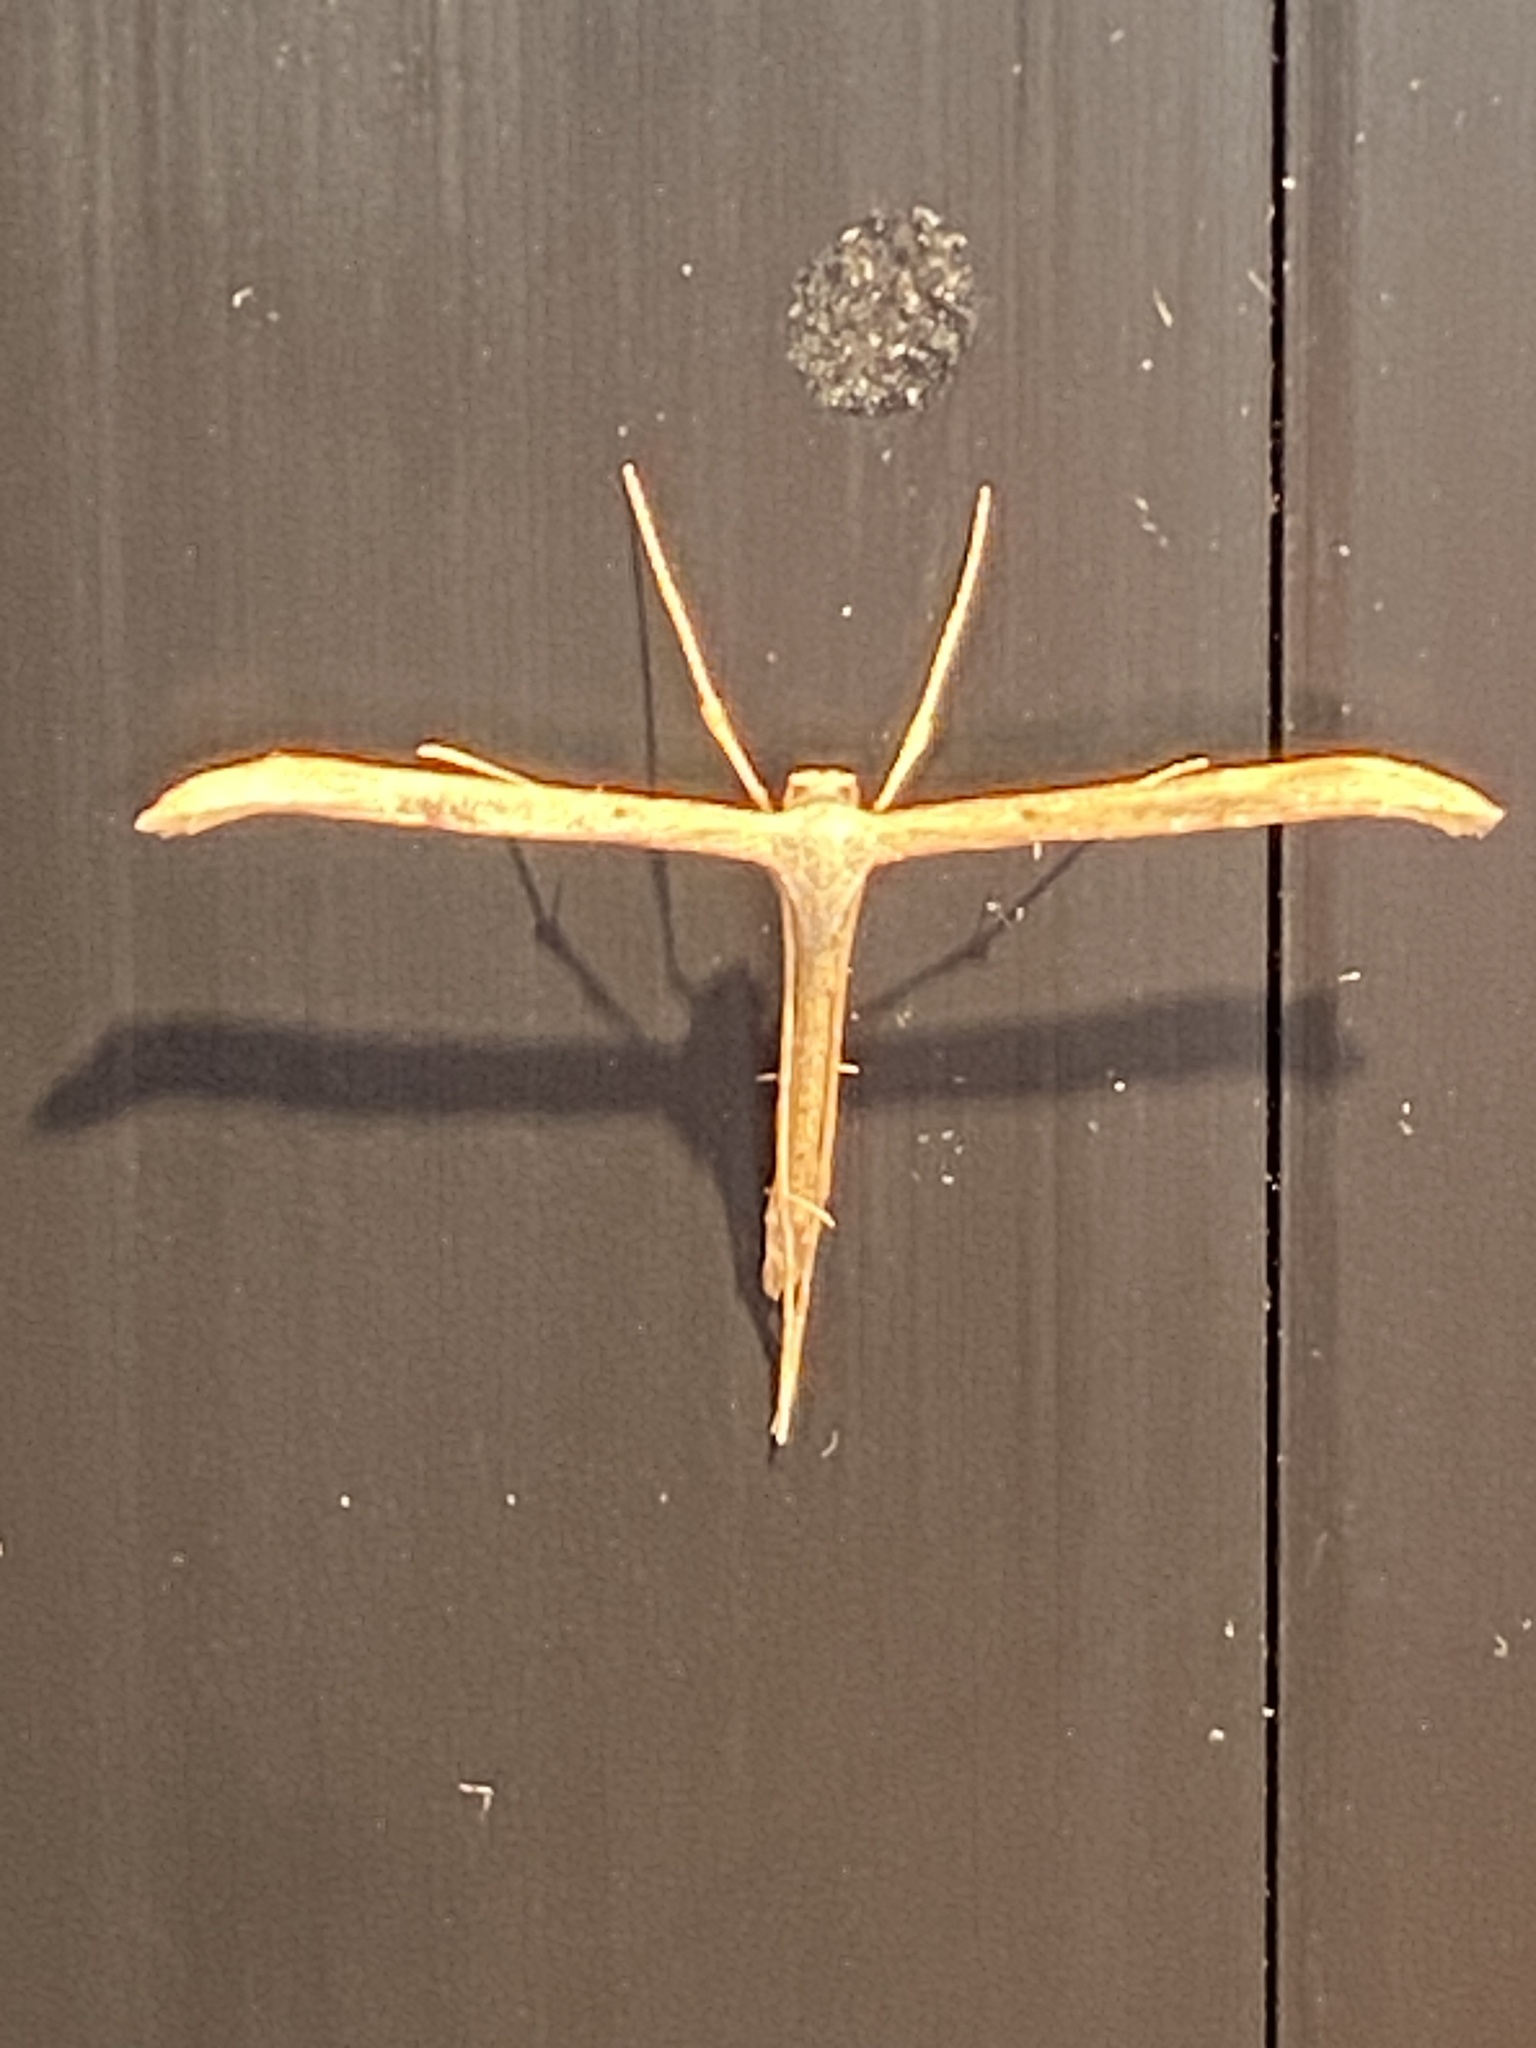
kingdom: Animalia
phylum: Arthropoda
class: Insecta
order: Lepidoptera
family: Pterophoridae
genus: Emmelina
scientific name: Emmelina monodactyla
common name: Common plume
